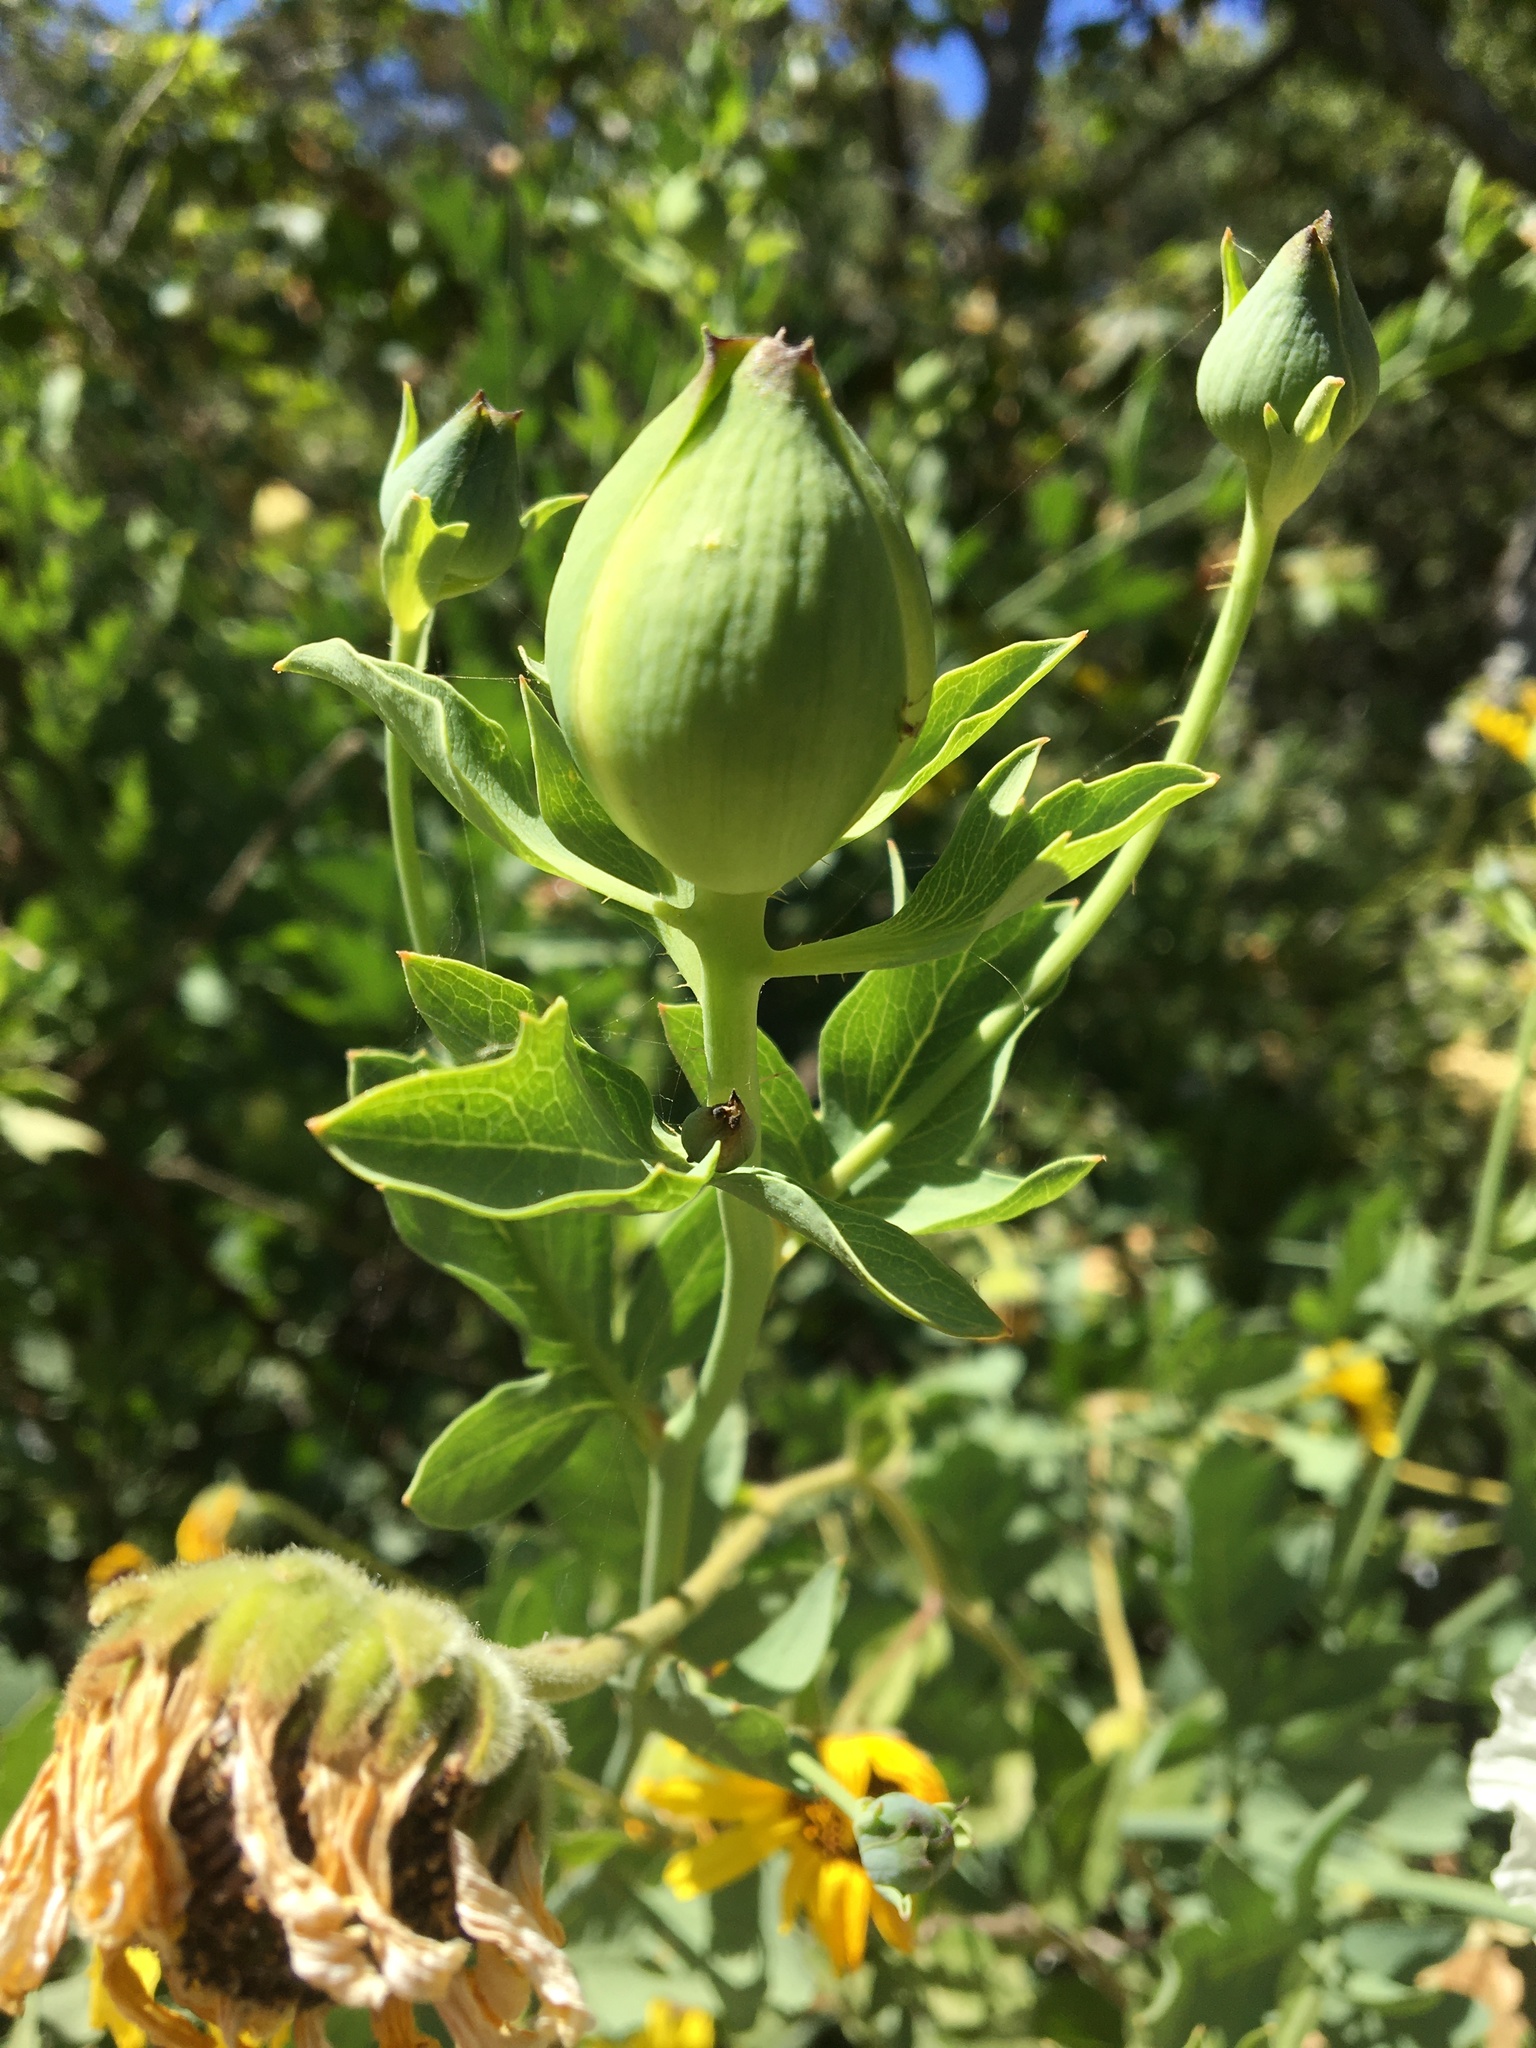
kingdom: Plantae
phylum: Tracheophyta
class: Magnoliopsida
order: Ranunculales
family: Papaveraceae
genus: Romneya
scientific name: Romneya coulteri
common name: California tree-poppy
